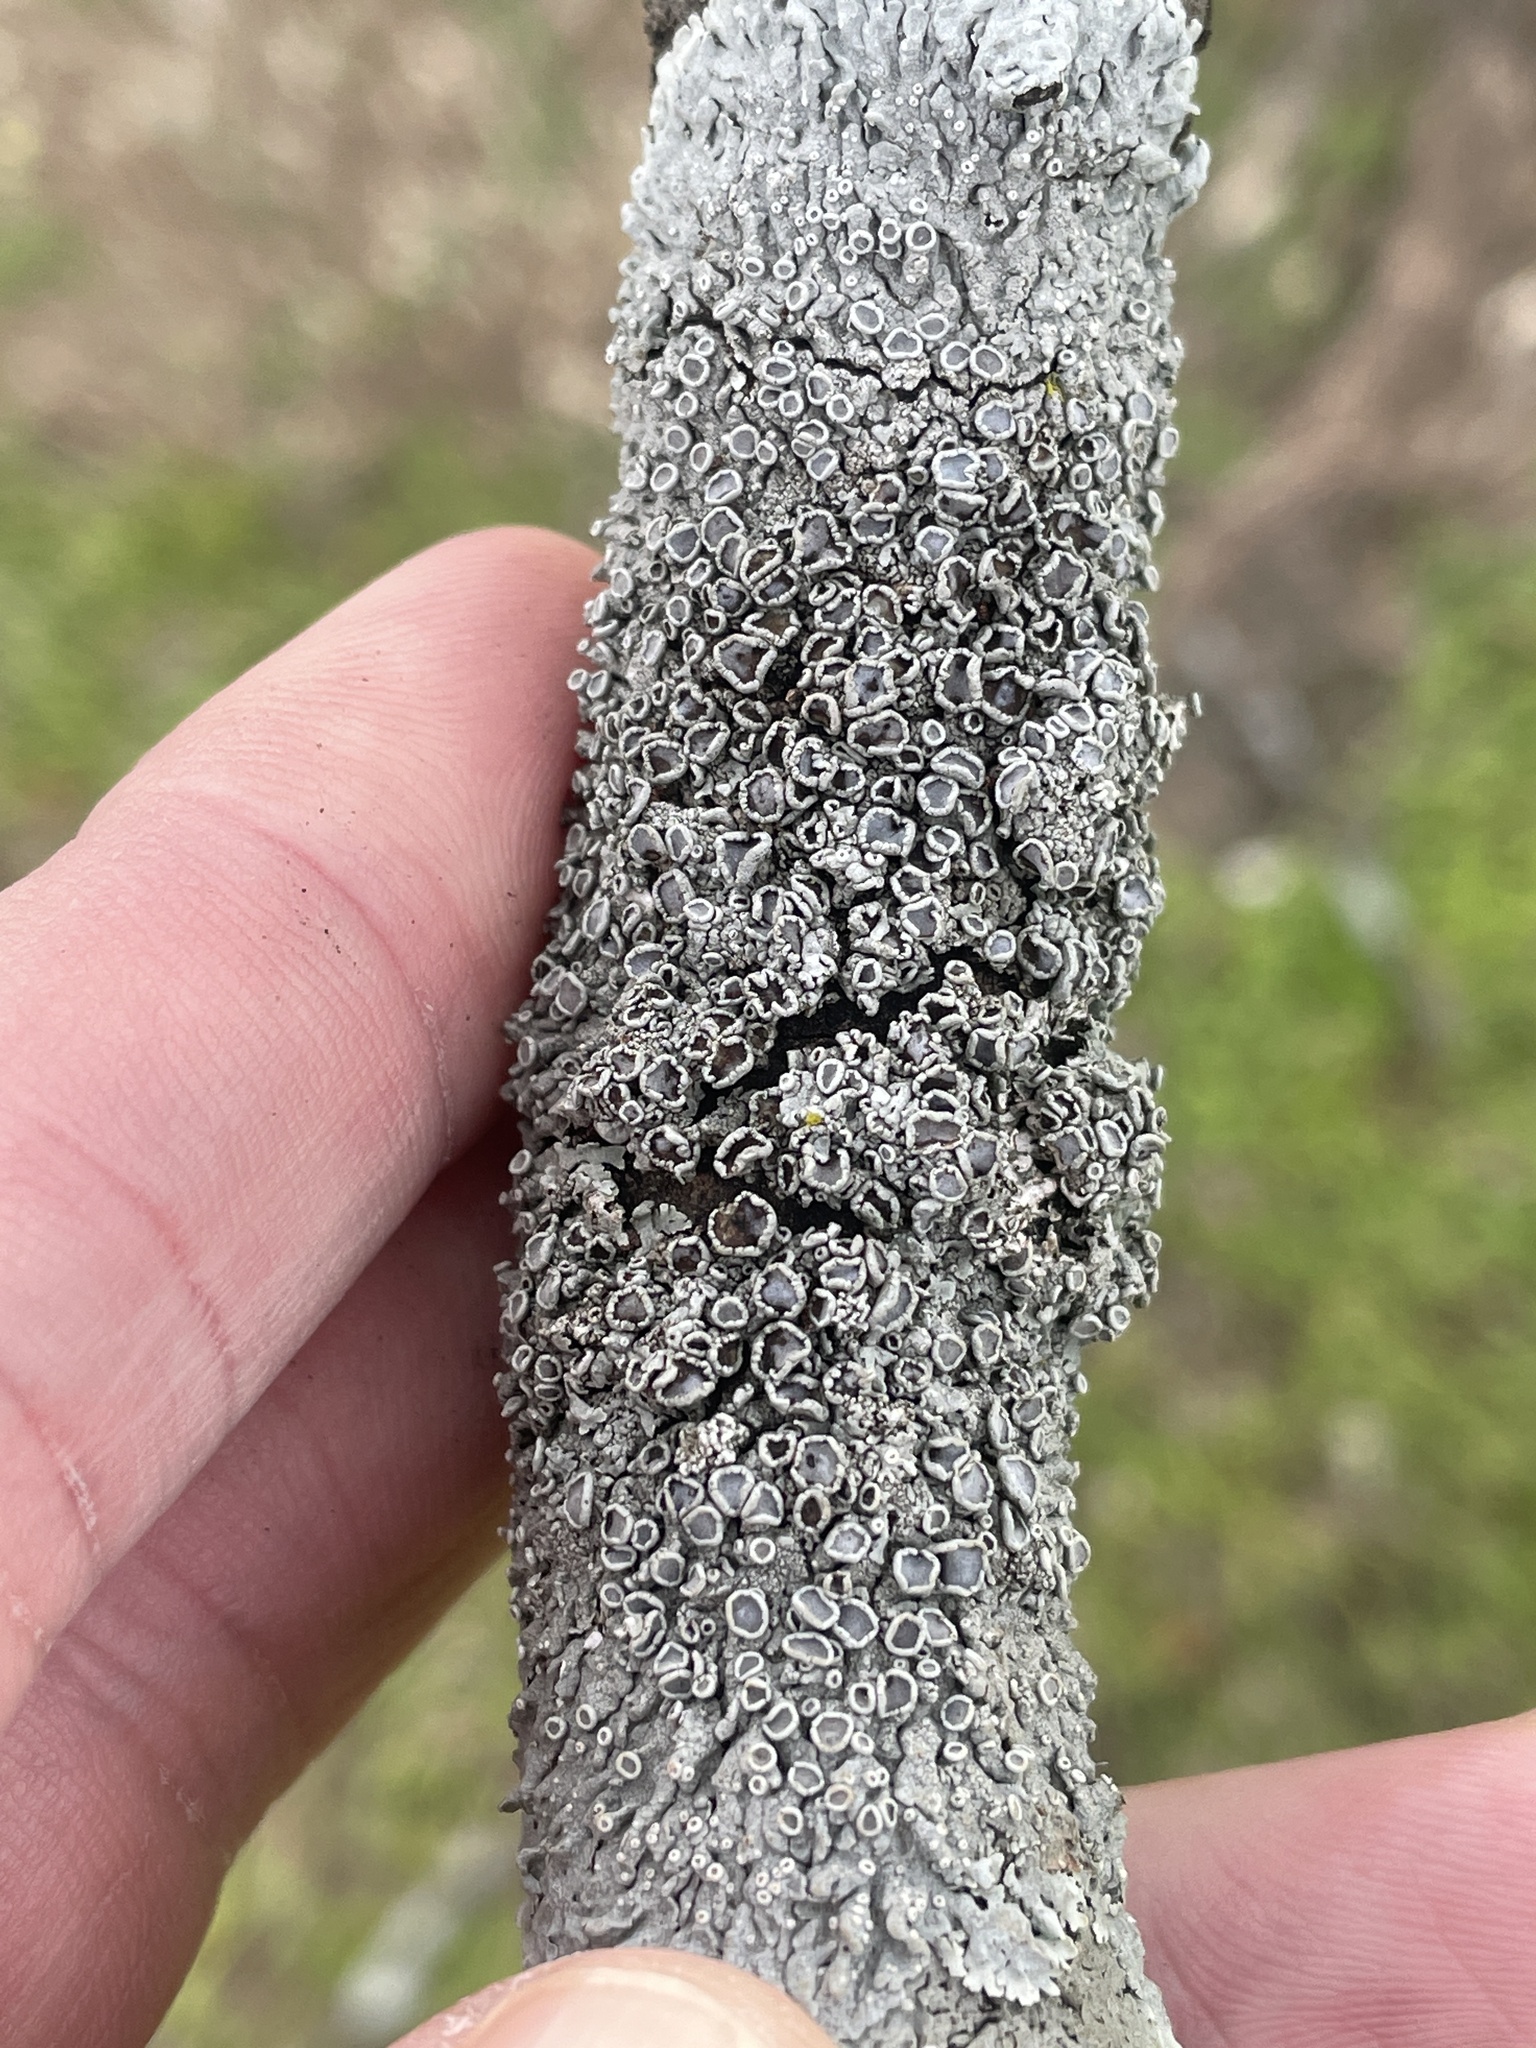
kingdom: Fungi
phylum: Ascomycota
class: Lecanoromycetes
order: Caliciales
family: Physciaceae
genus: Physcia
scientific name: Physcia stellaris
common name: Star rosette lichen
